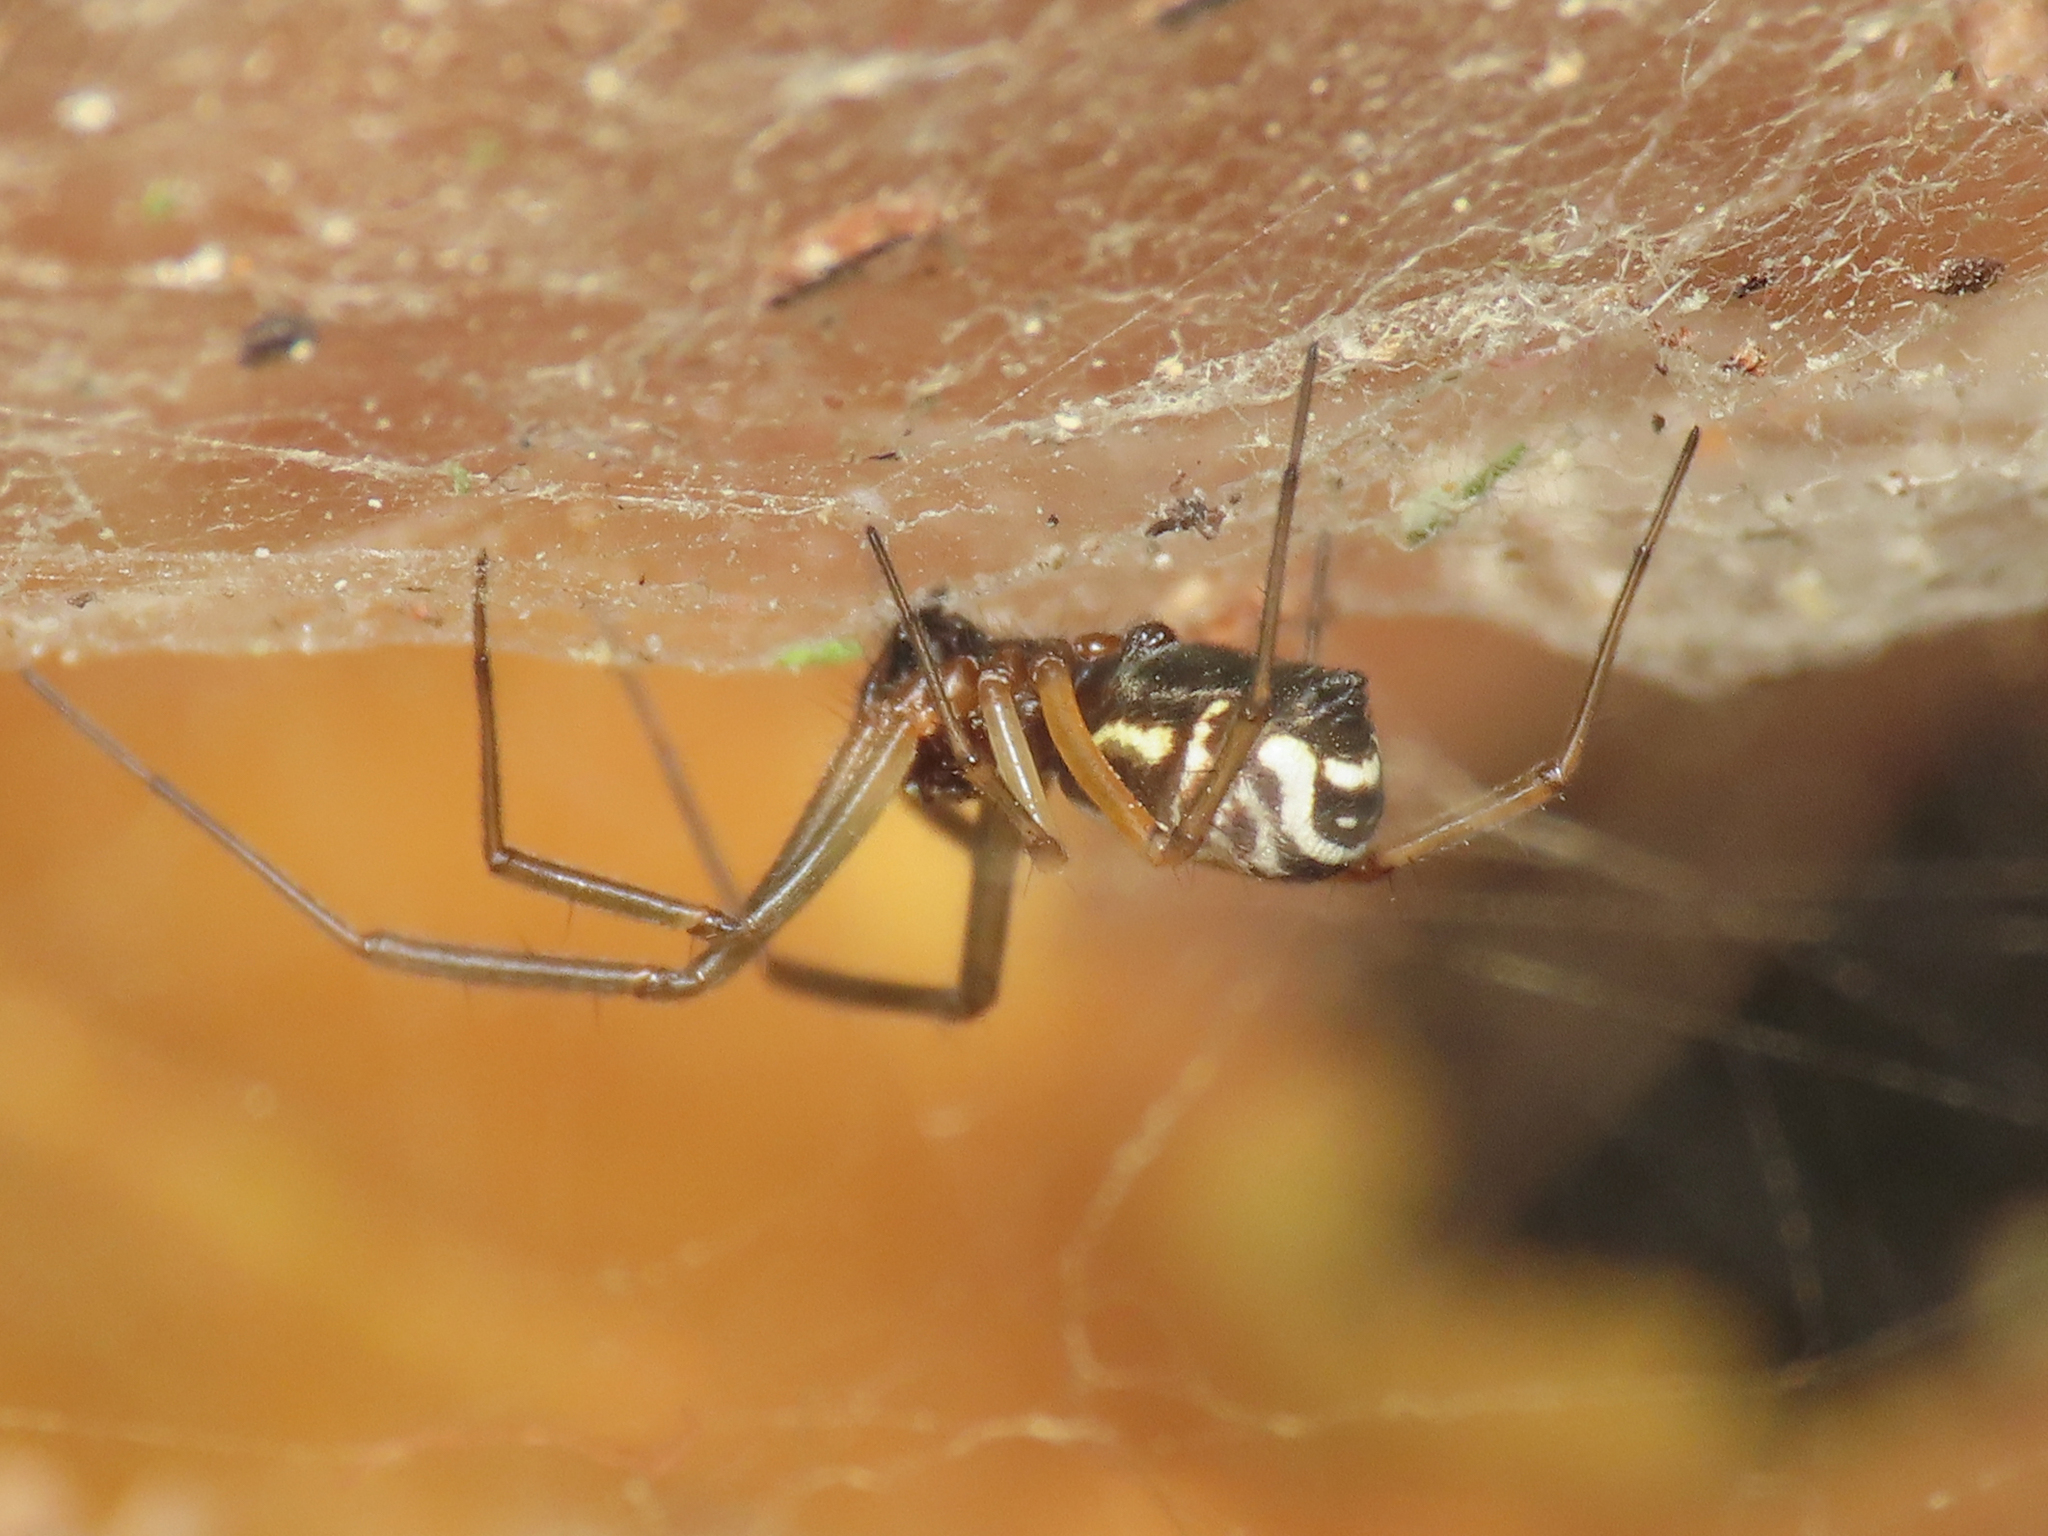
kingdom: Animalia
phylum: Arthropoda
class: Arachnida
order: Araneae
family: Linyphiidae
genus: Frontinellina
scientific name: Frontinellina frutetorum
